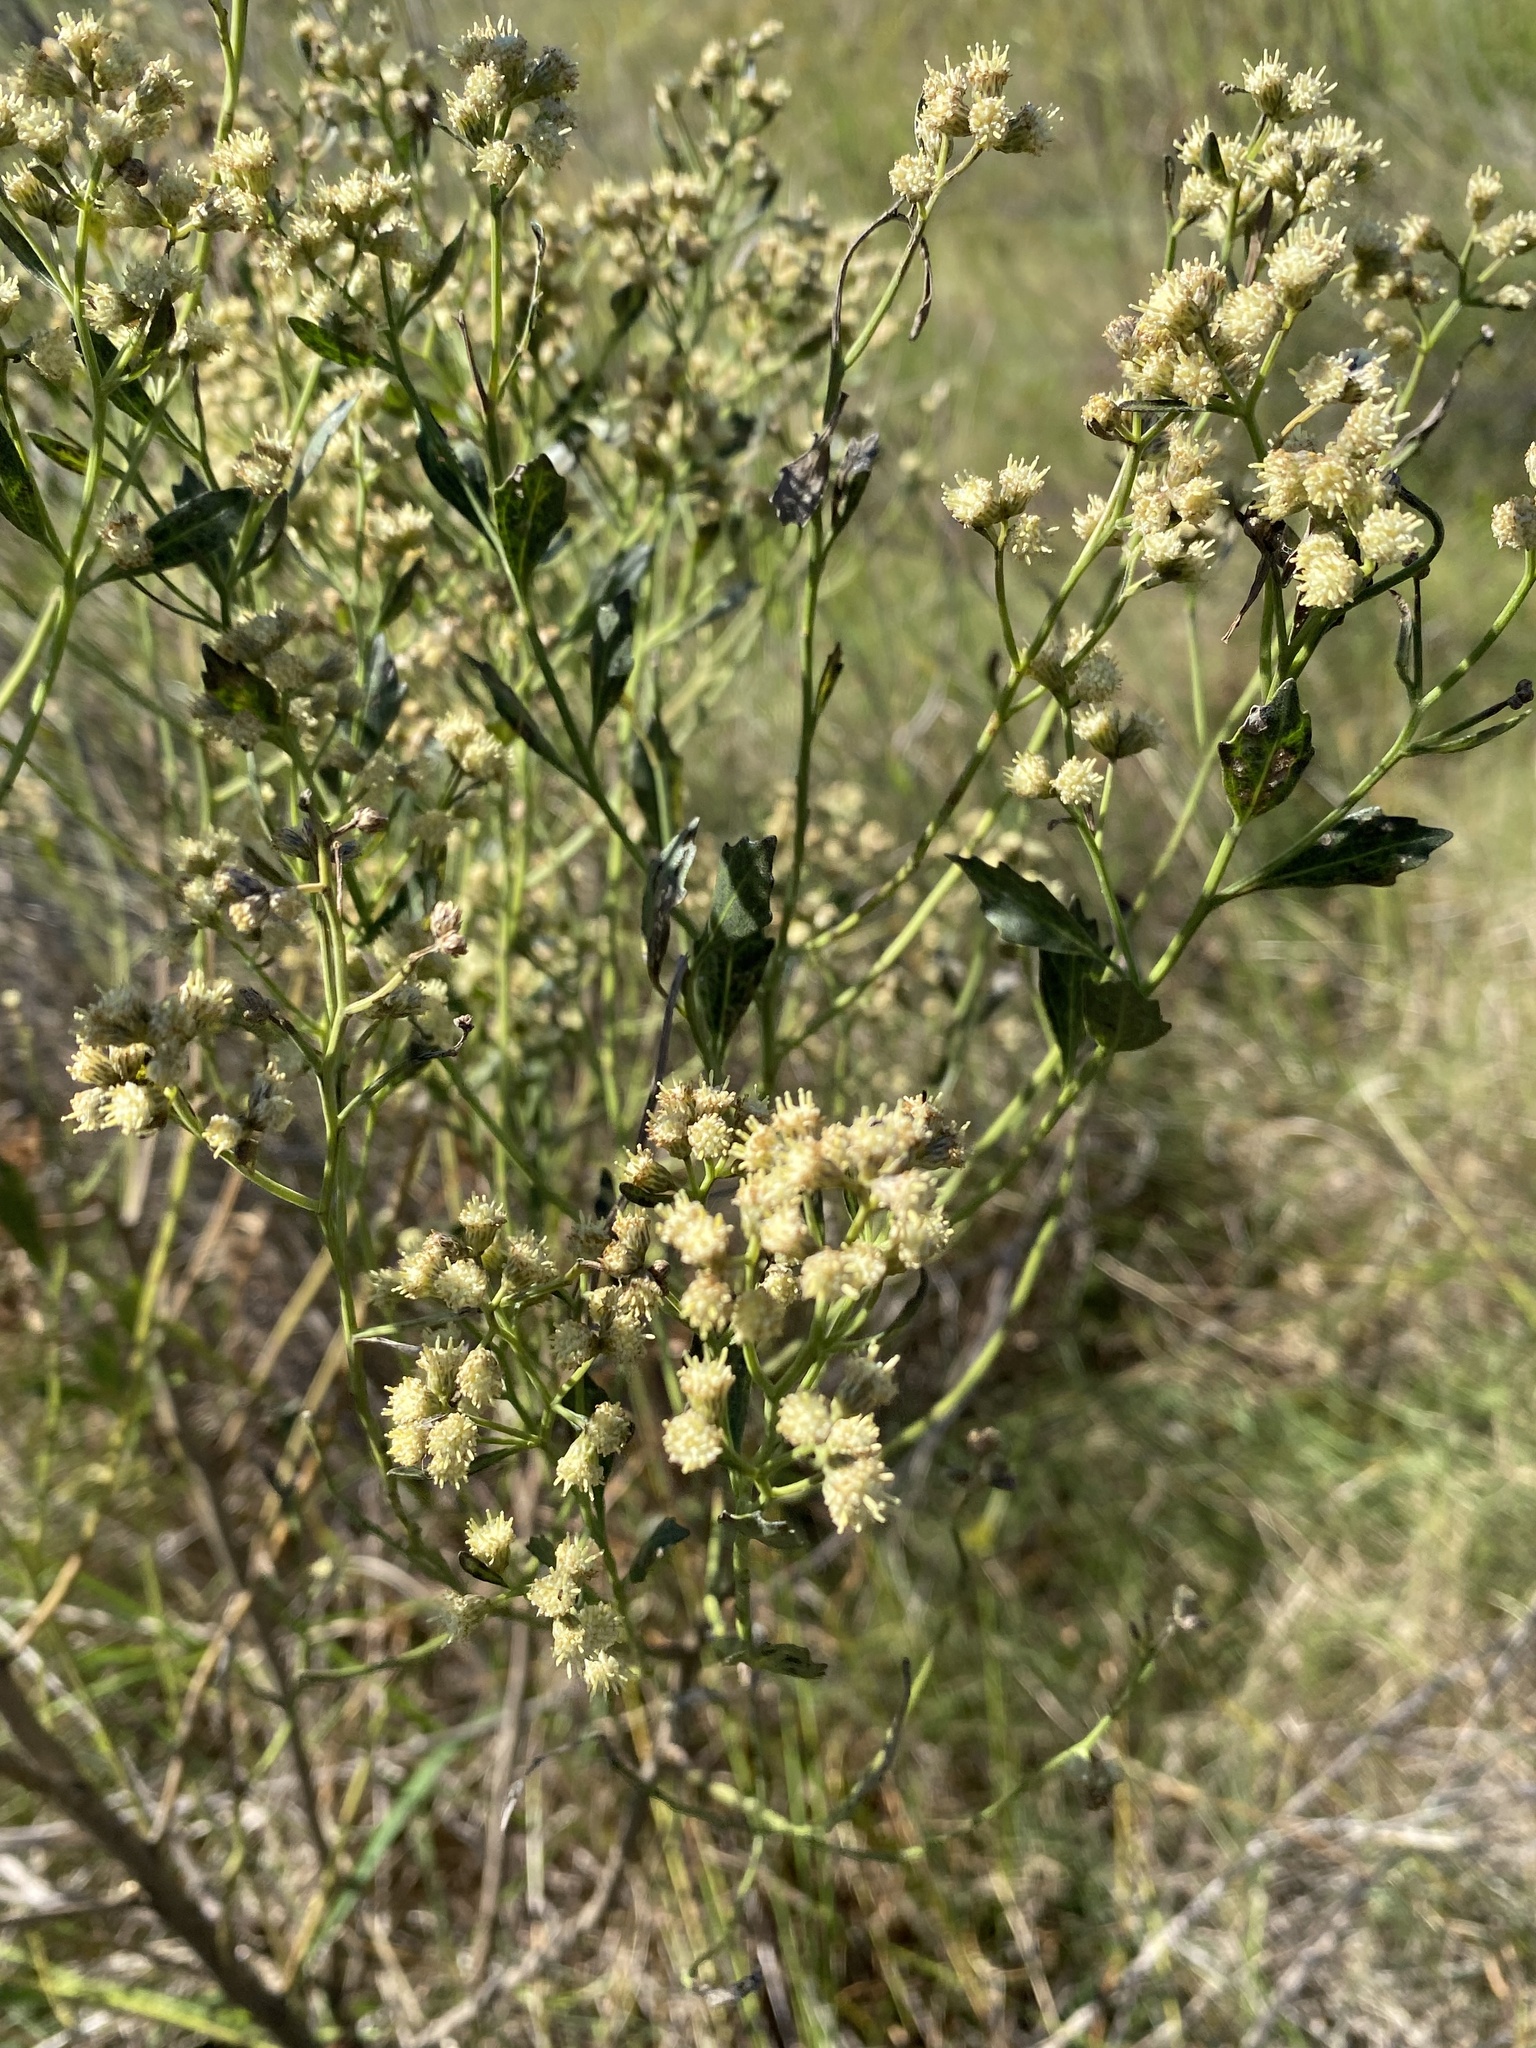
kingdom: Plantae
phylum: Tracheophyta
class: Magnoliopsida
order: Asterales
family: Asteraceae
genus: Baccharis
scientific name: Baccharis halimifolia
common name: Eastern baccharis
